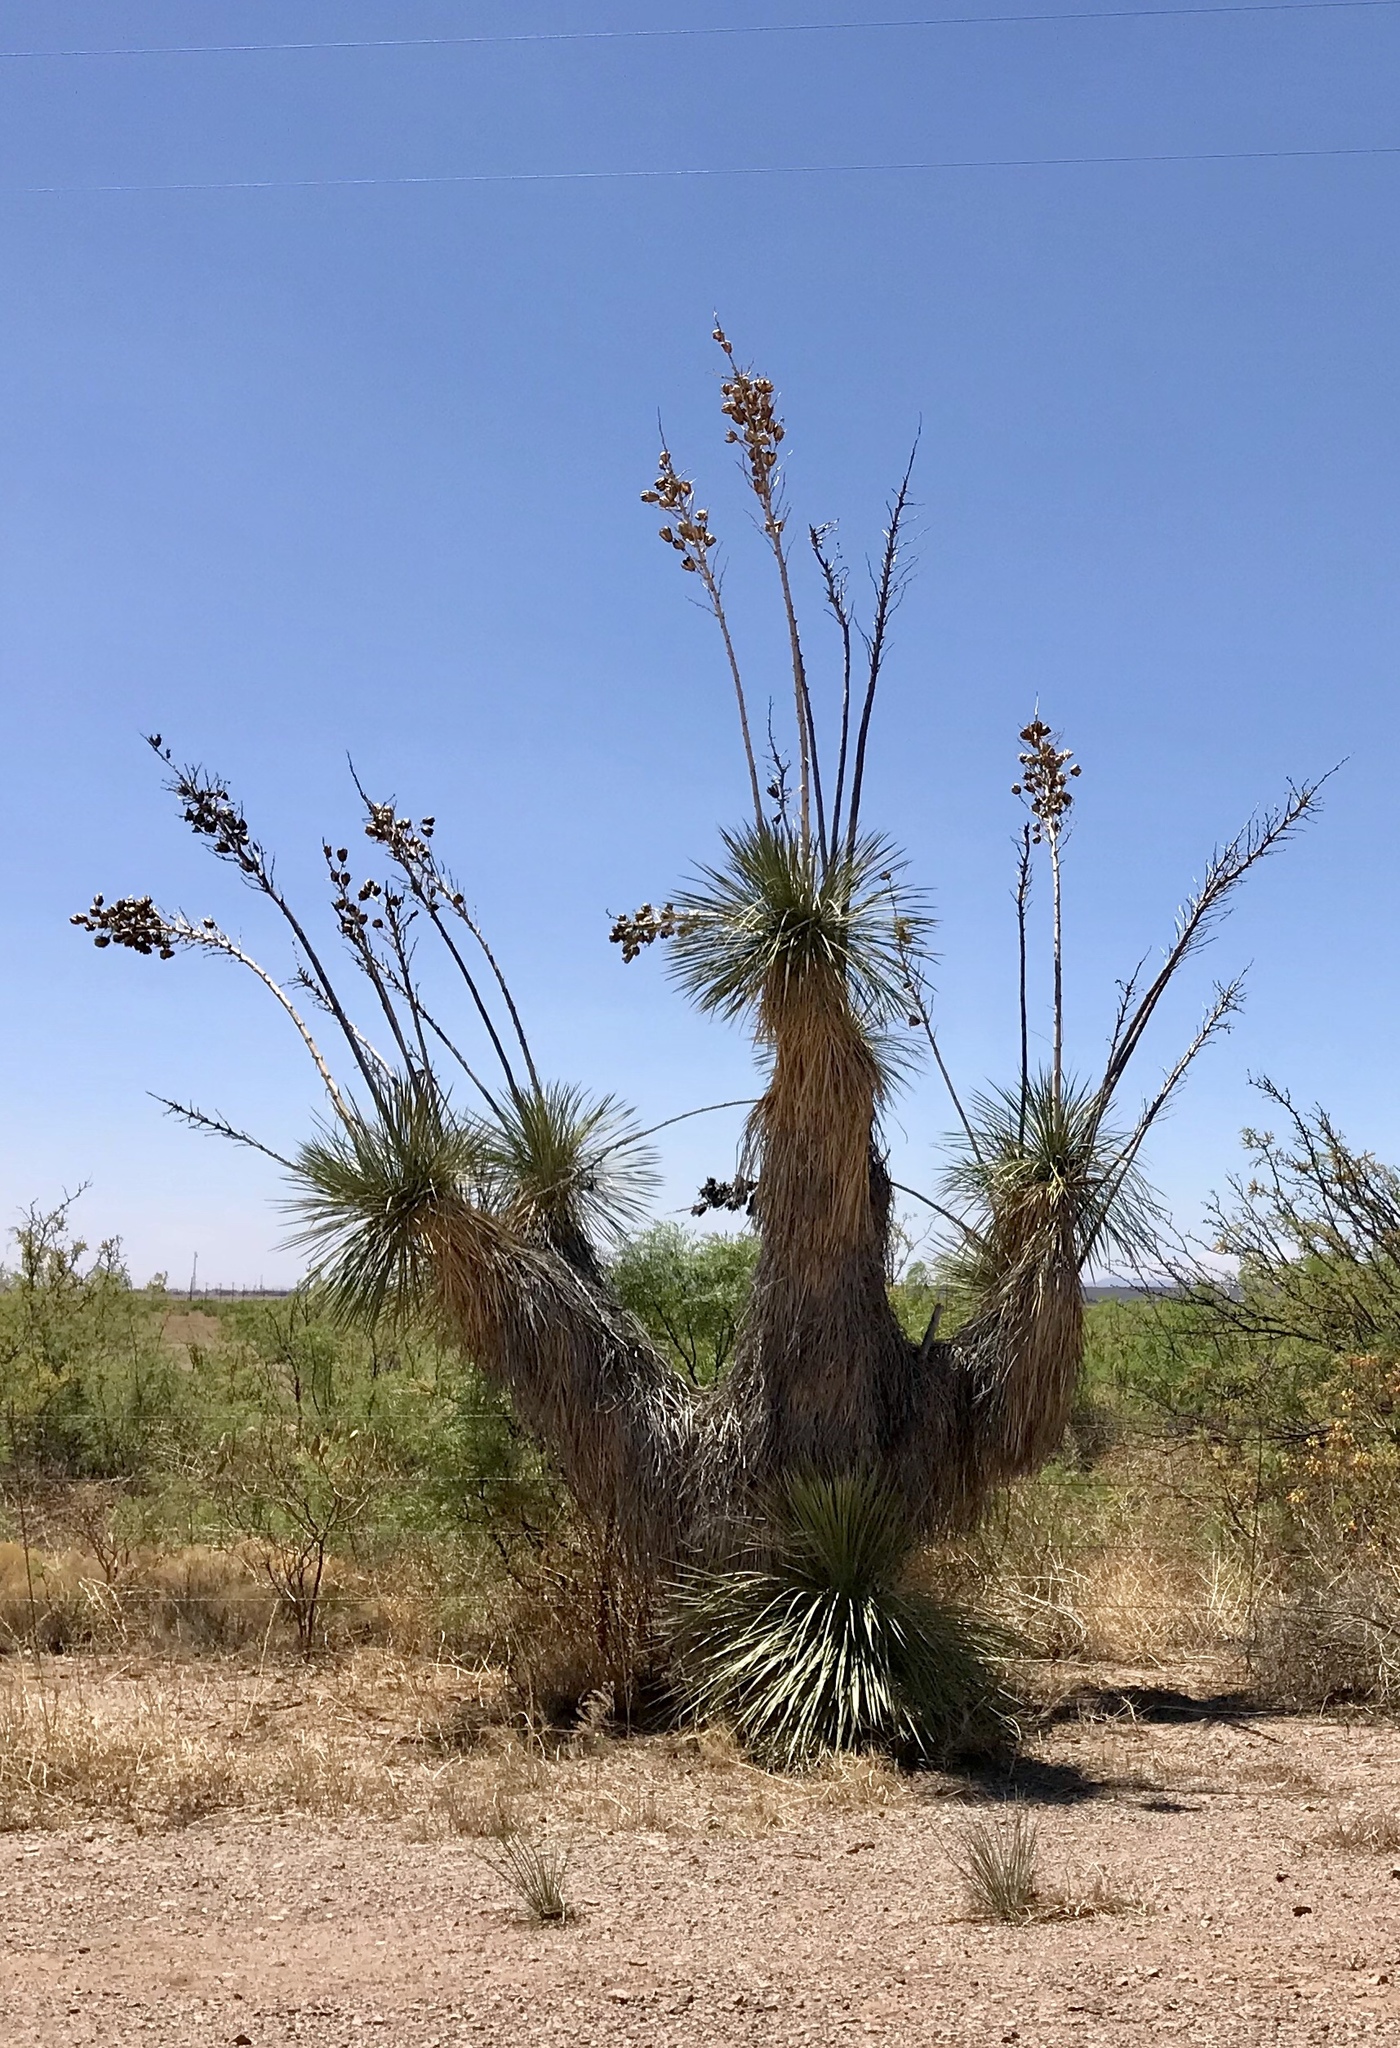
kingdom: Plantae
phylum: Tracheophyta
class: Liliopsida
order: Asparagales
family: Asparagaceae
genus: Yucca
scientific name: Yucca elata
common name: Palmella
